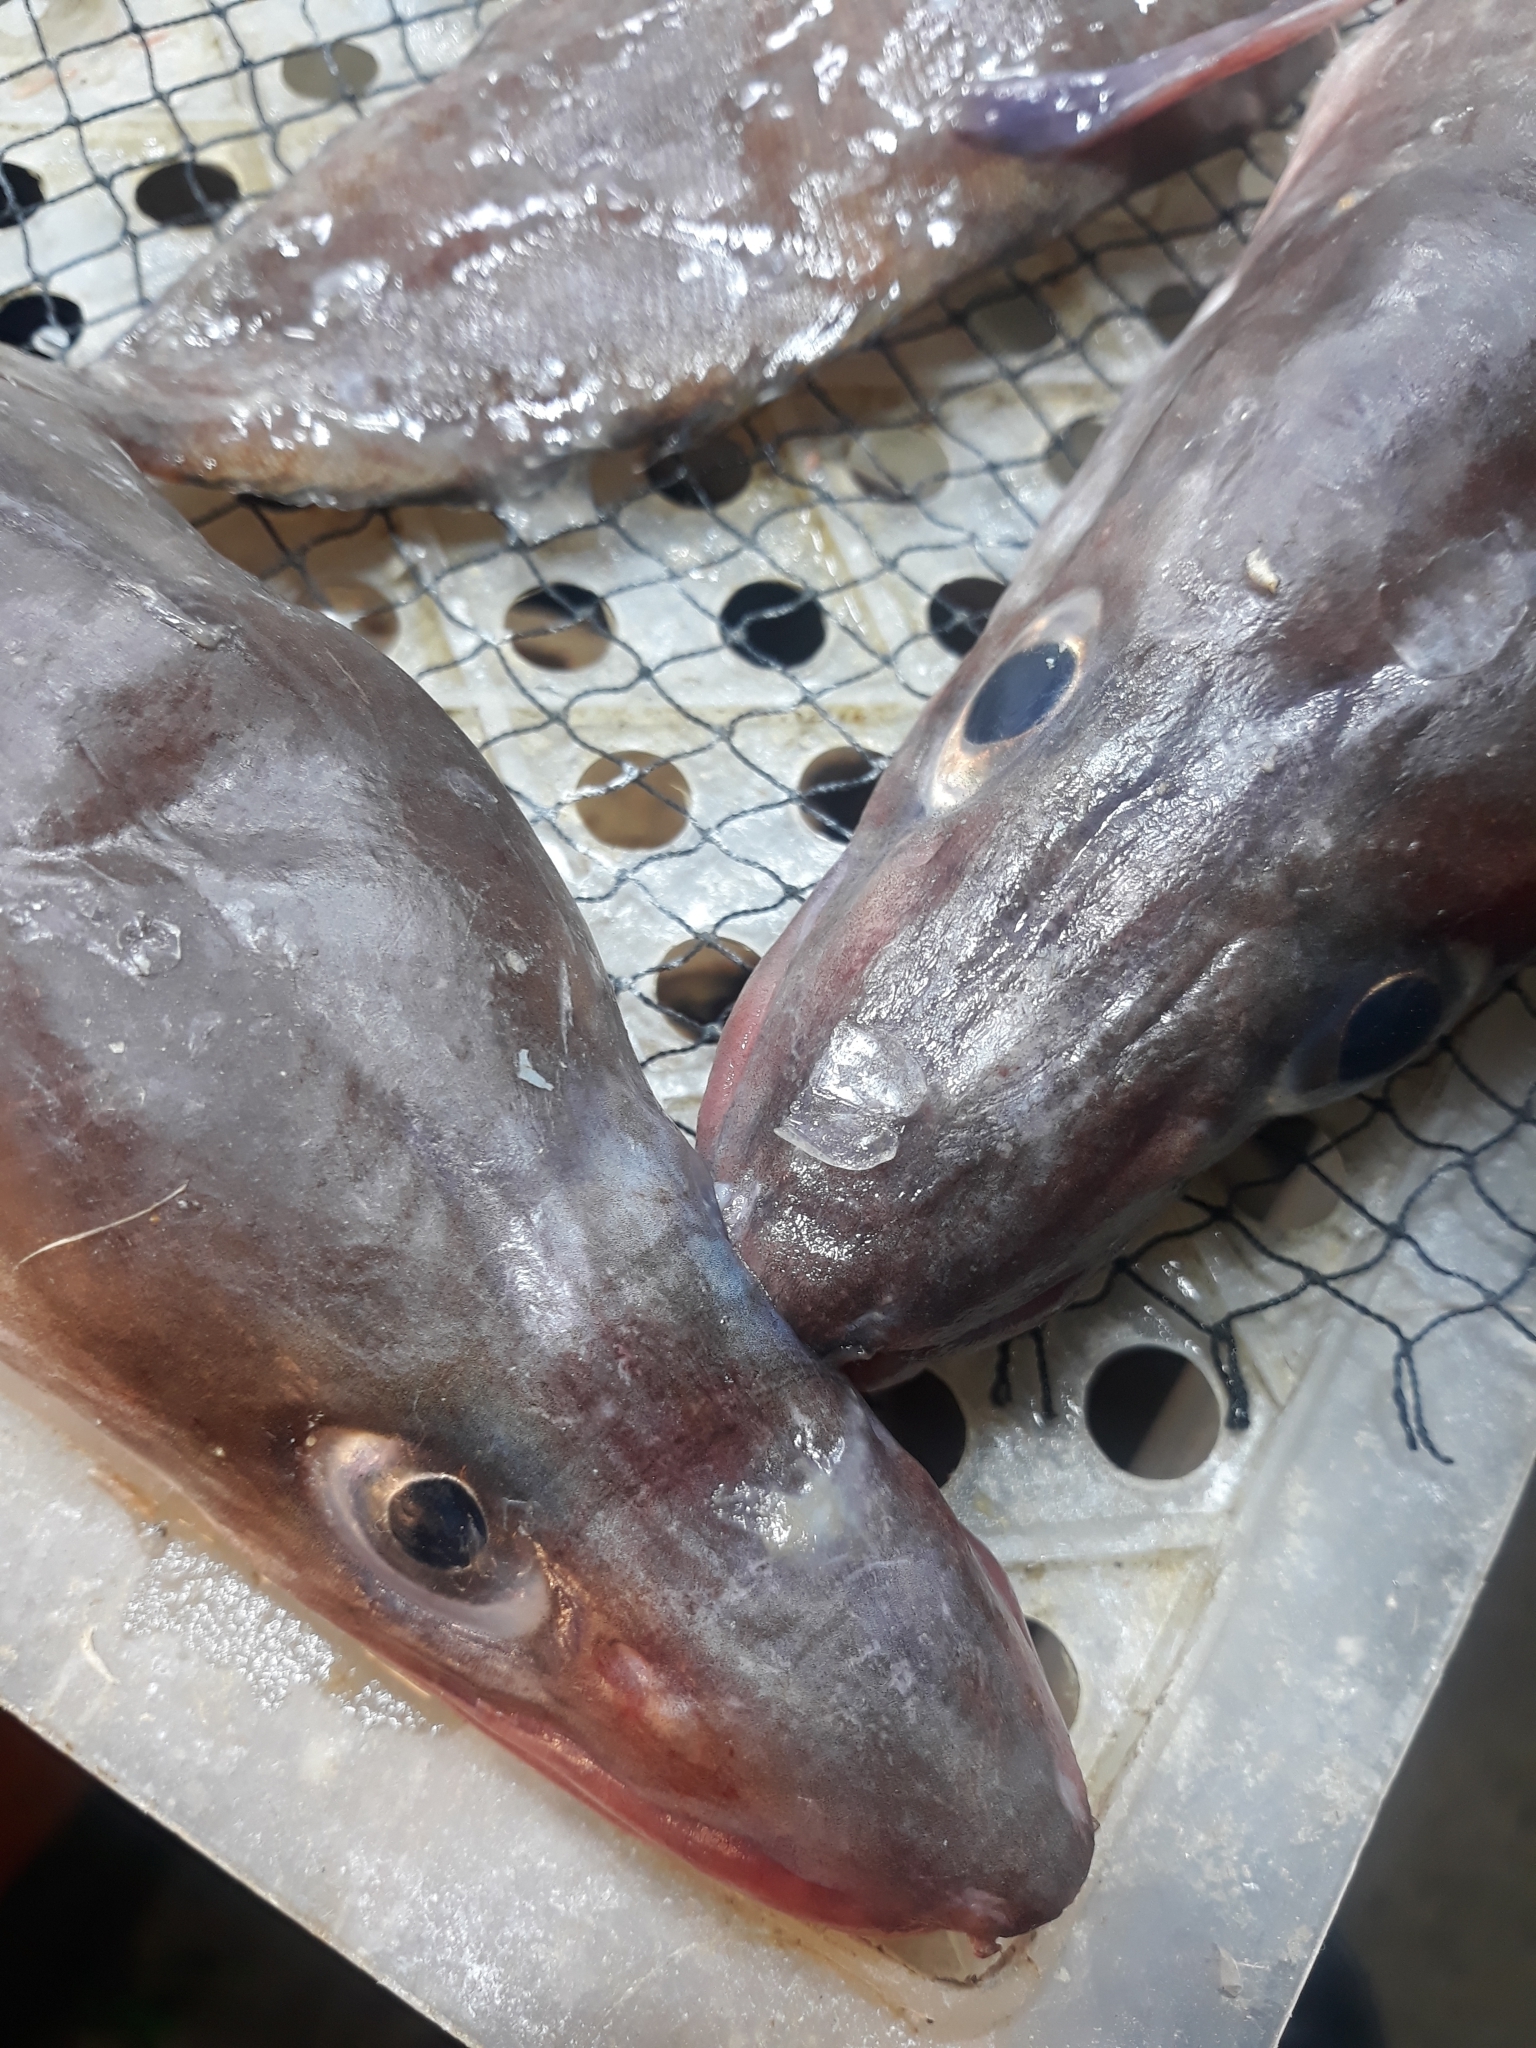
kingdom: Animalia
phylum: Chordata
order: Anguilliformes
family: Congridae
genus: Conger
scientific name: Conger conger
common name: Conger eel
